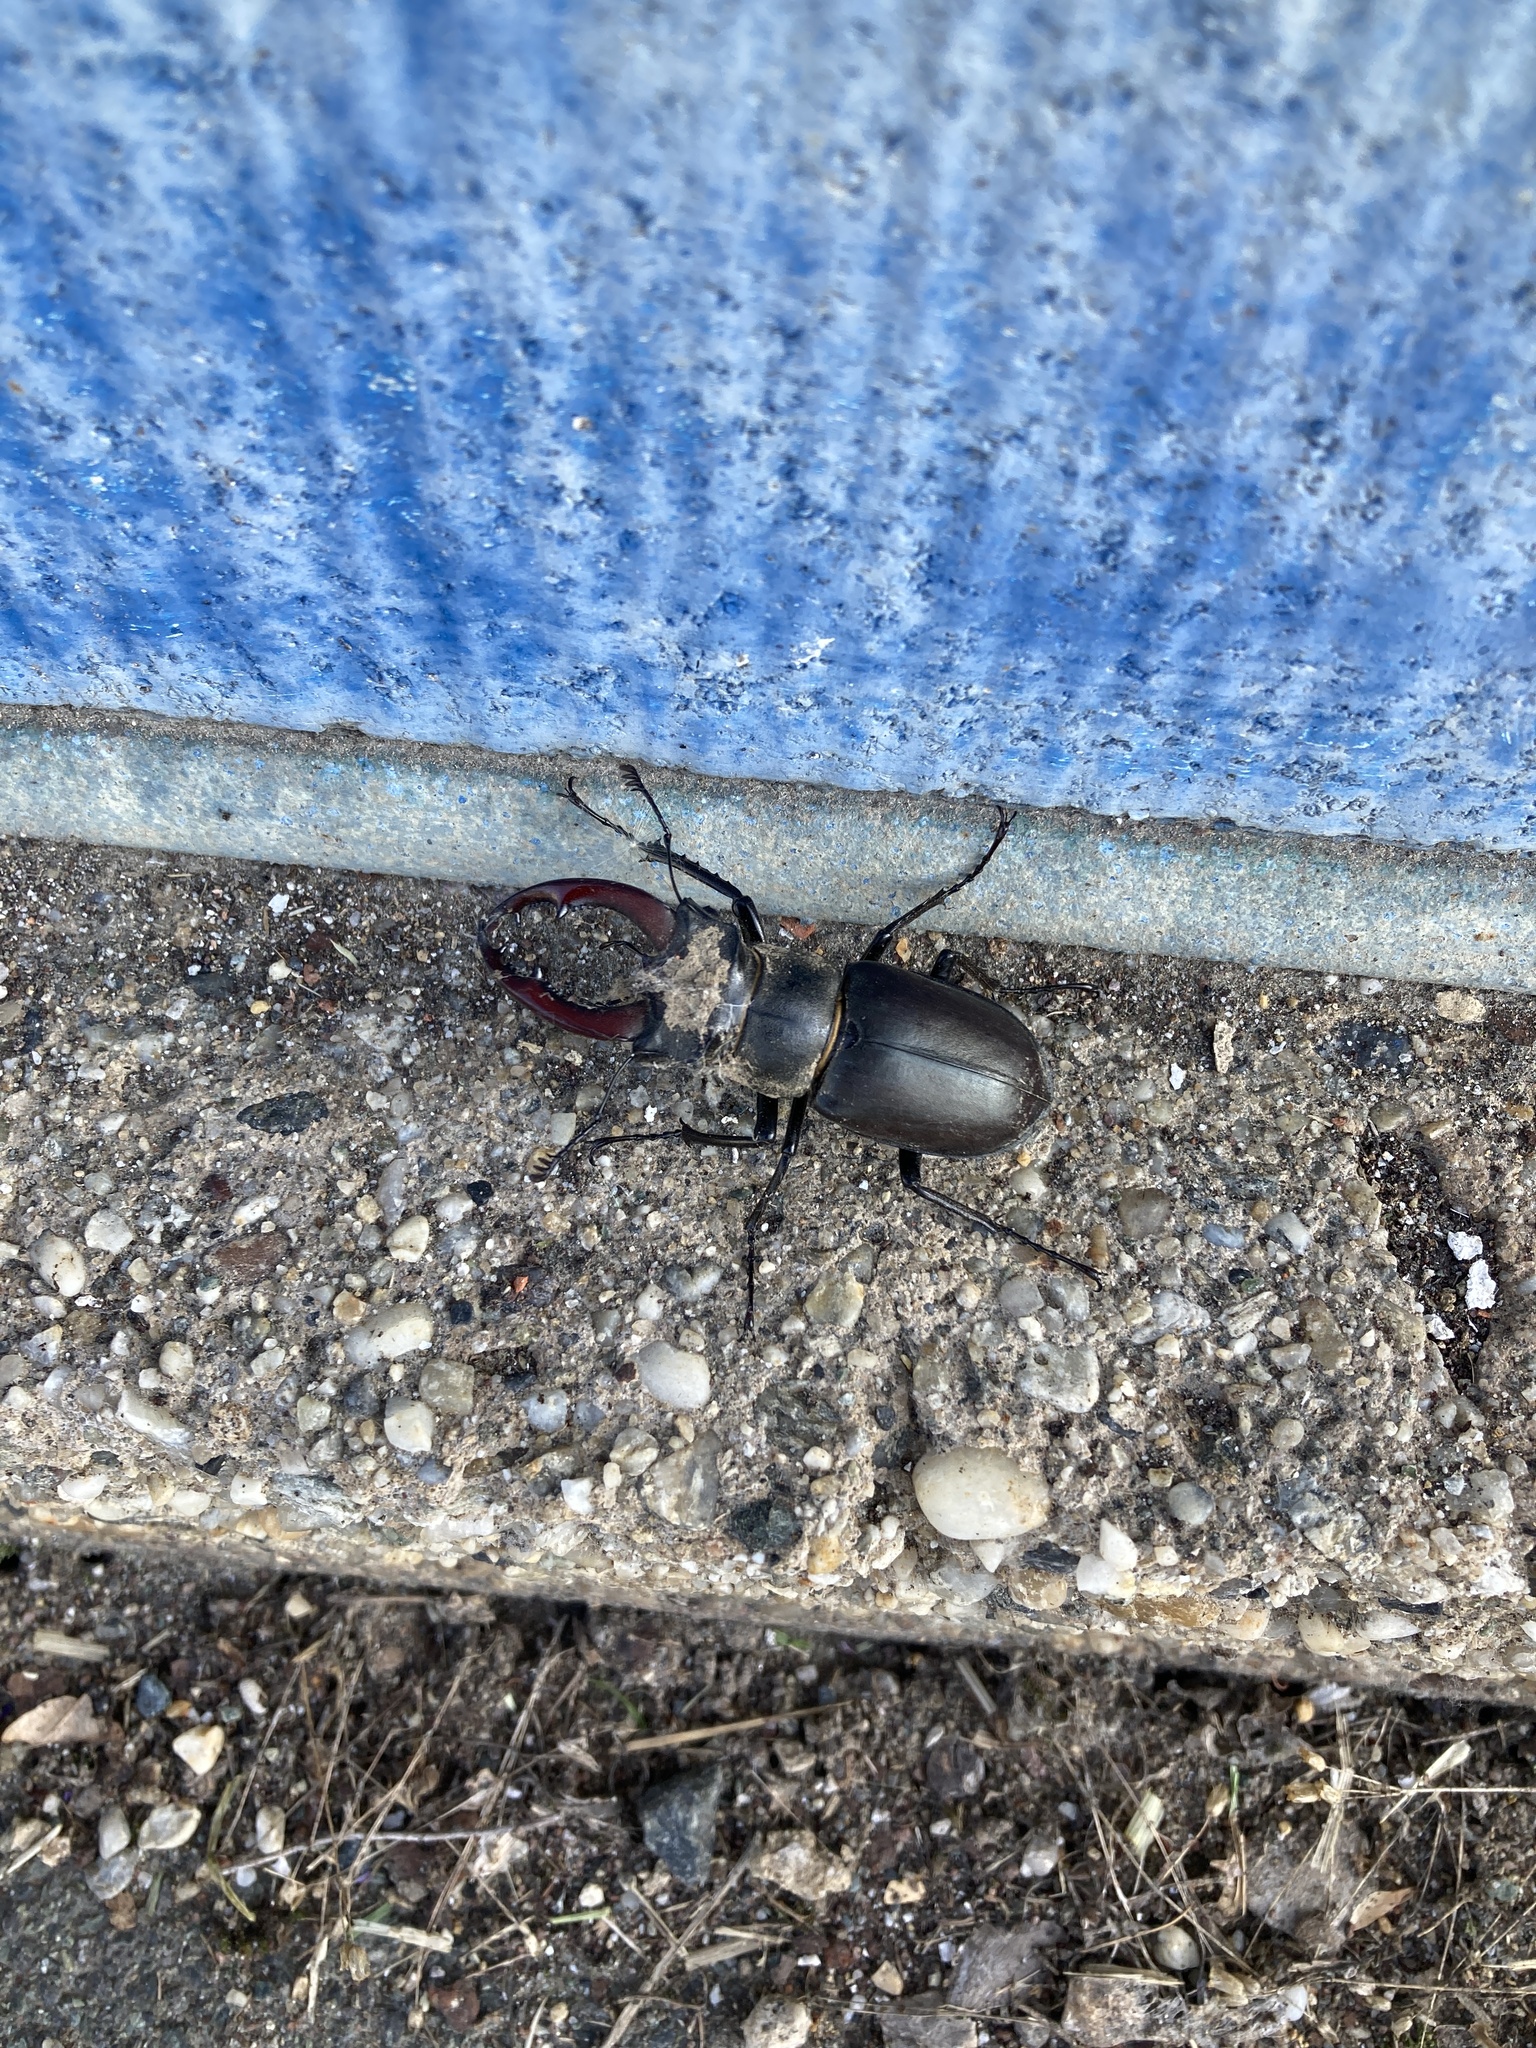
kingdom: Animalia
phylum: Arthropoda
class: Insecta
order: Coleoptera
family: Lucanidae
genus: Lucanus
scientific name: Lucanus cervus
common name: Stag beetle
